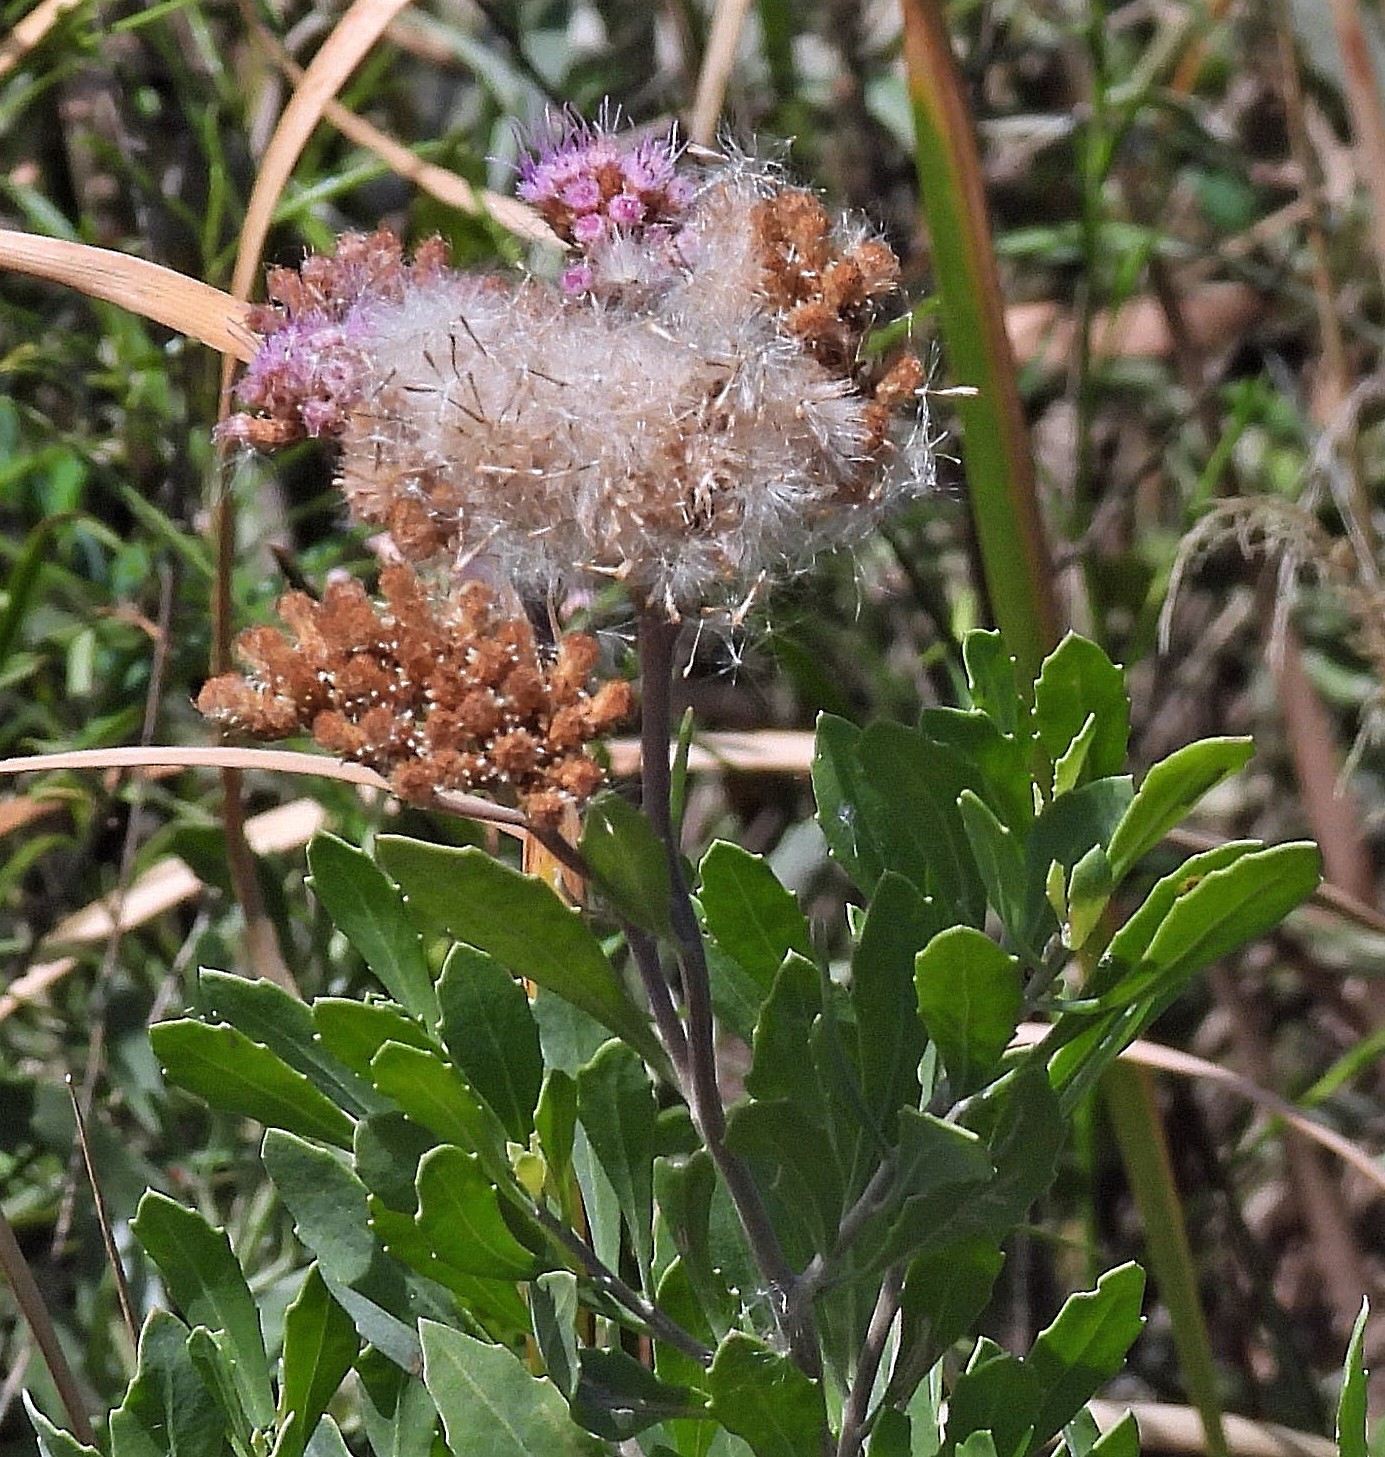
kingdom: Plantae
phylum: Tracheophyta
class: Magnoliopsida
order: Asterales
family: Asteraceae
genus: Tessaria
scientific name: Tessaria absinthioides
